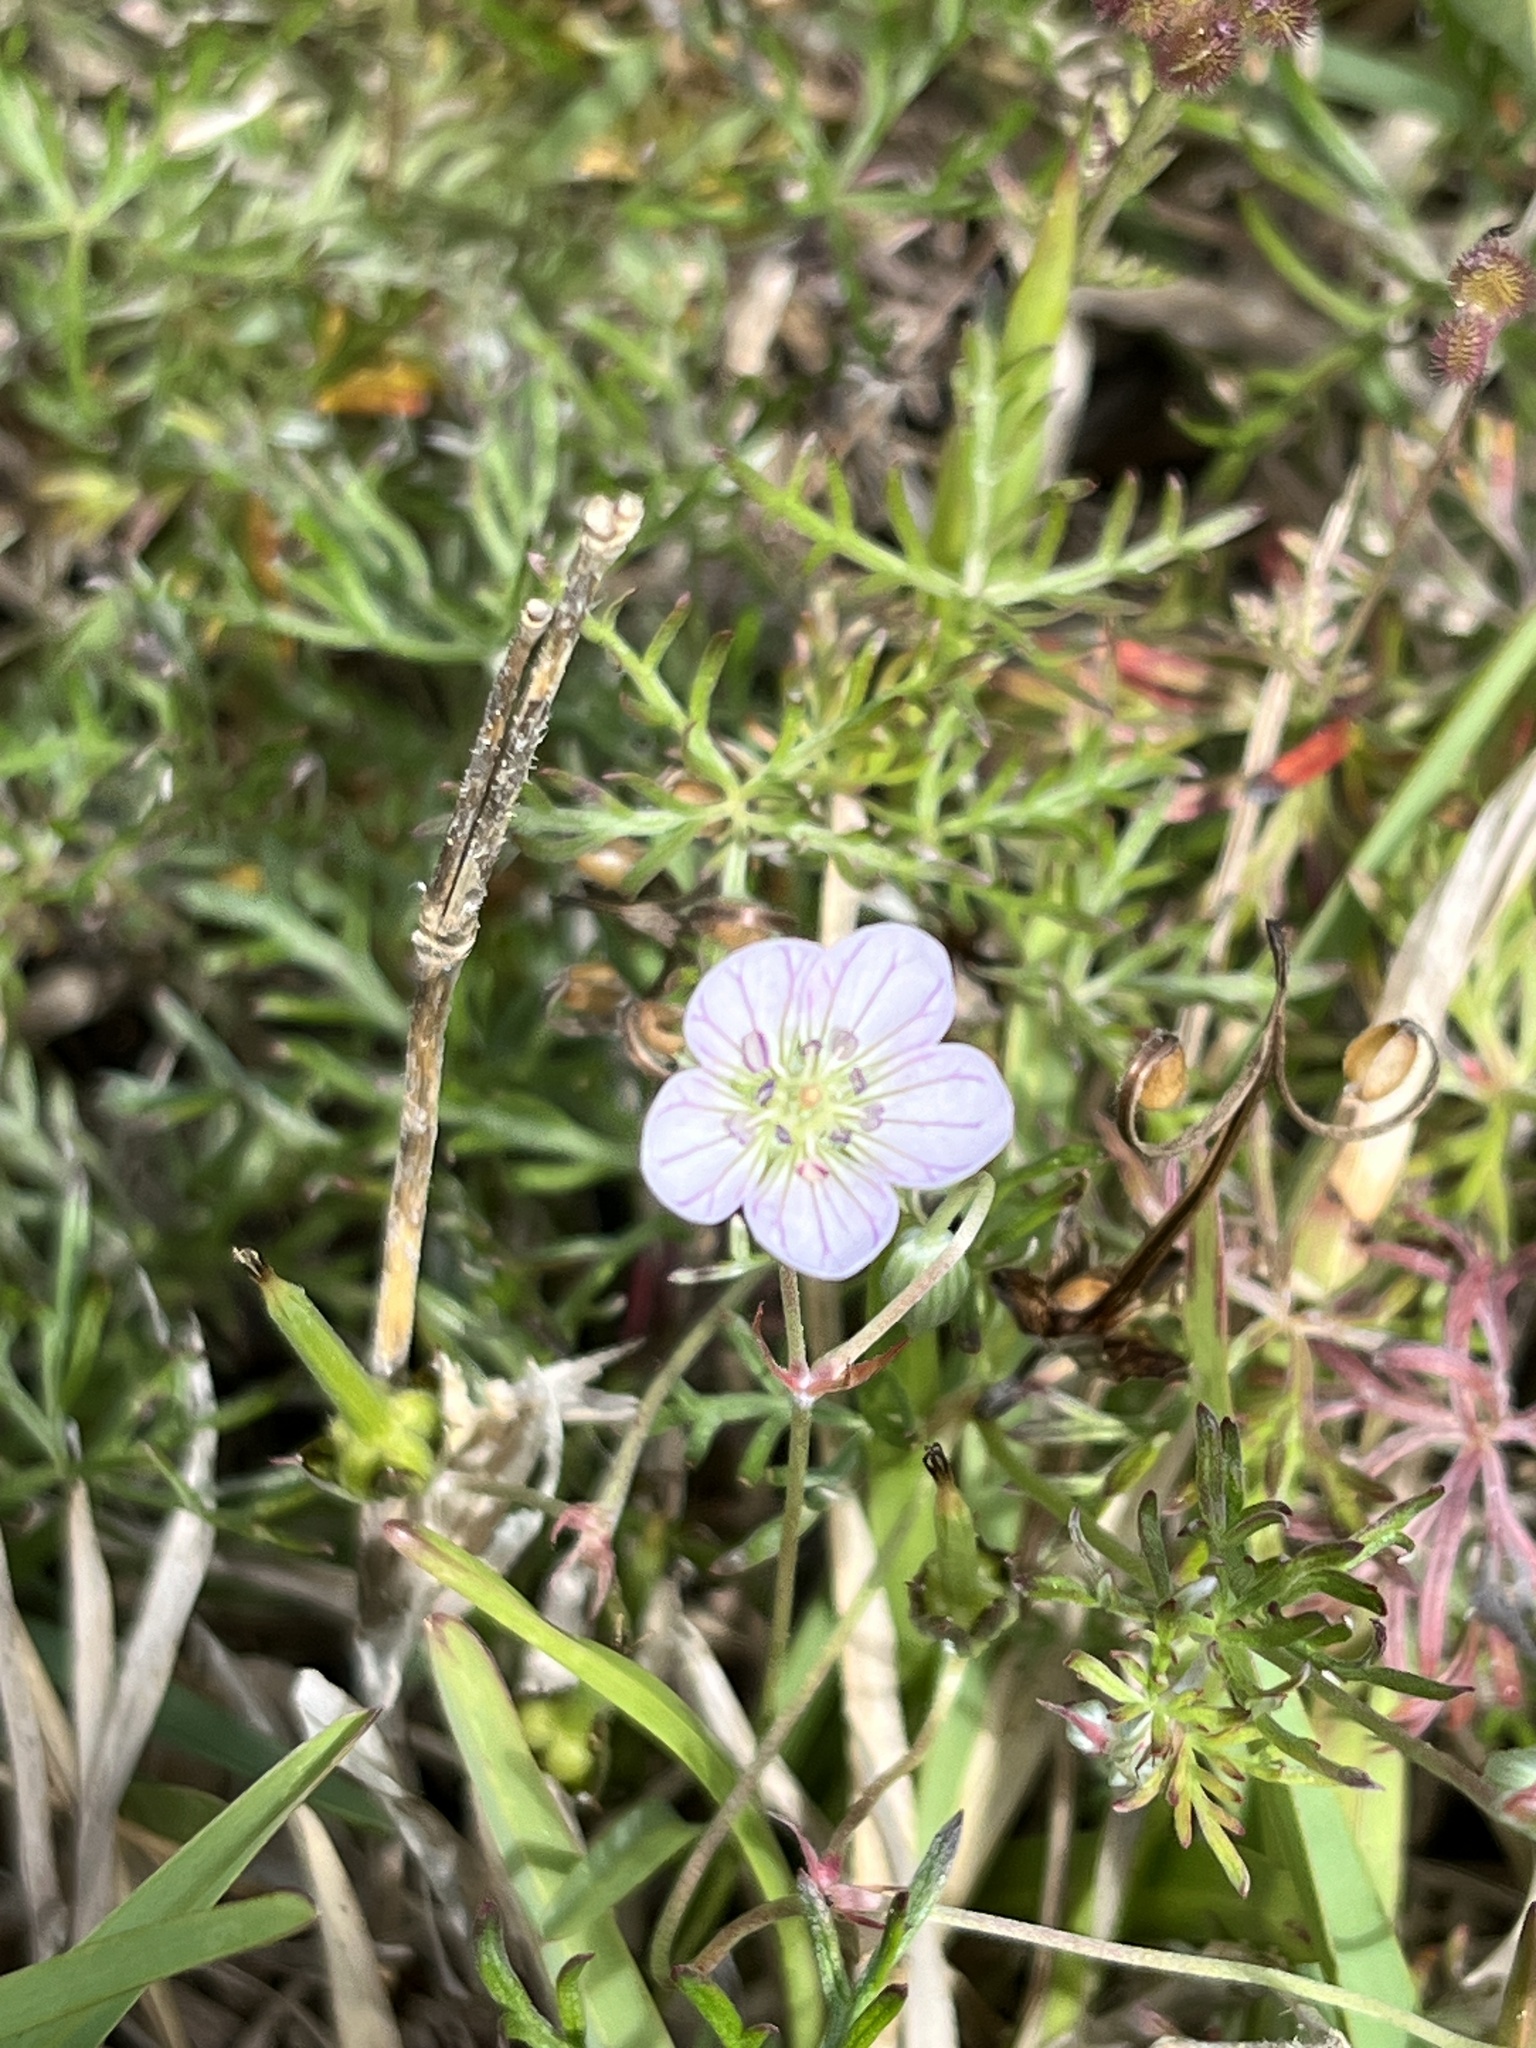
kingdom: Plantae
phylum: Tracheophyta
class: Magnoliopsida
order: Geraniales
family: Geraniaceae
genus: Geranium
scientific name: Geranium incanum
